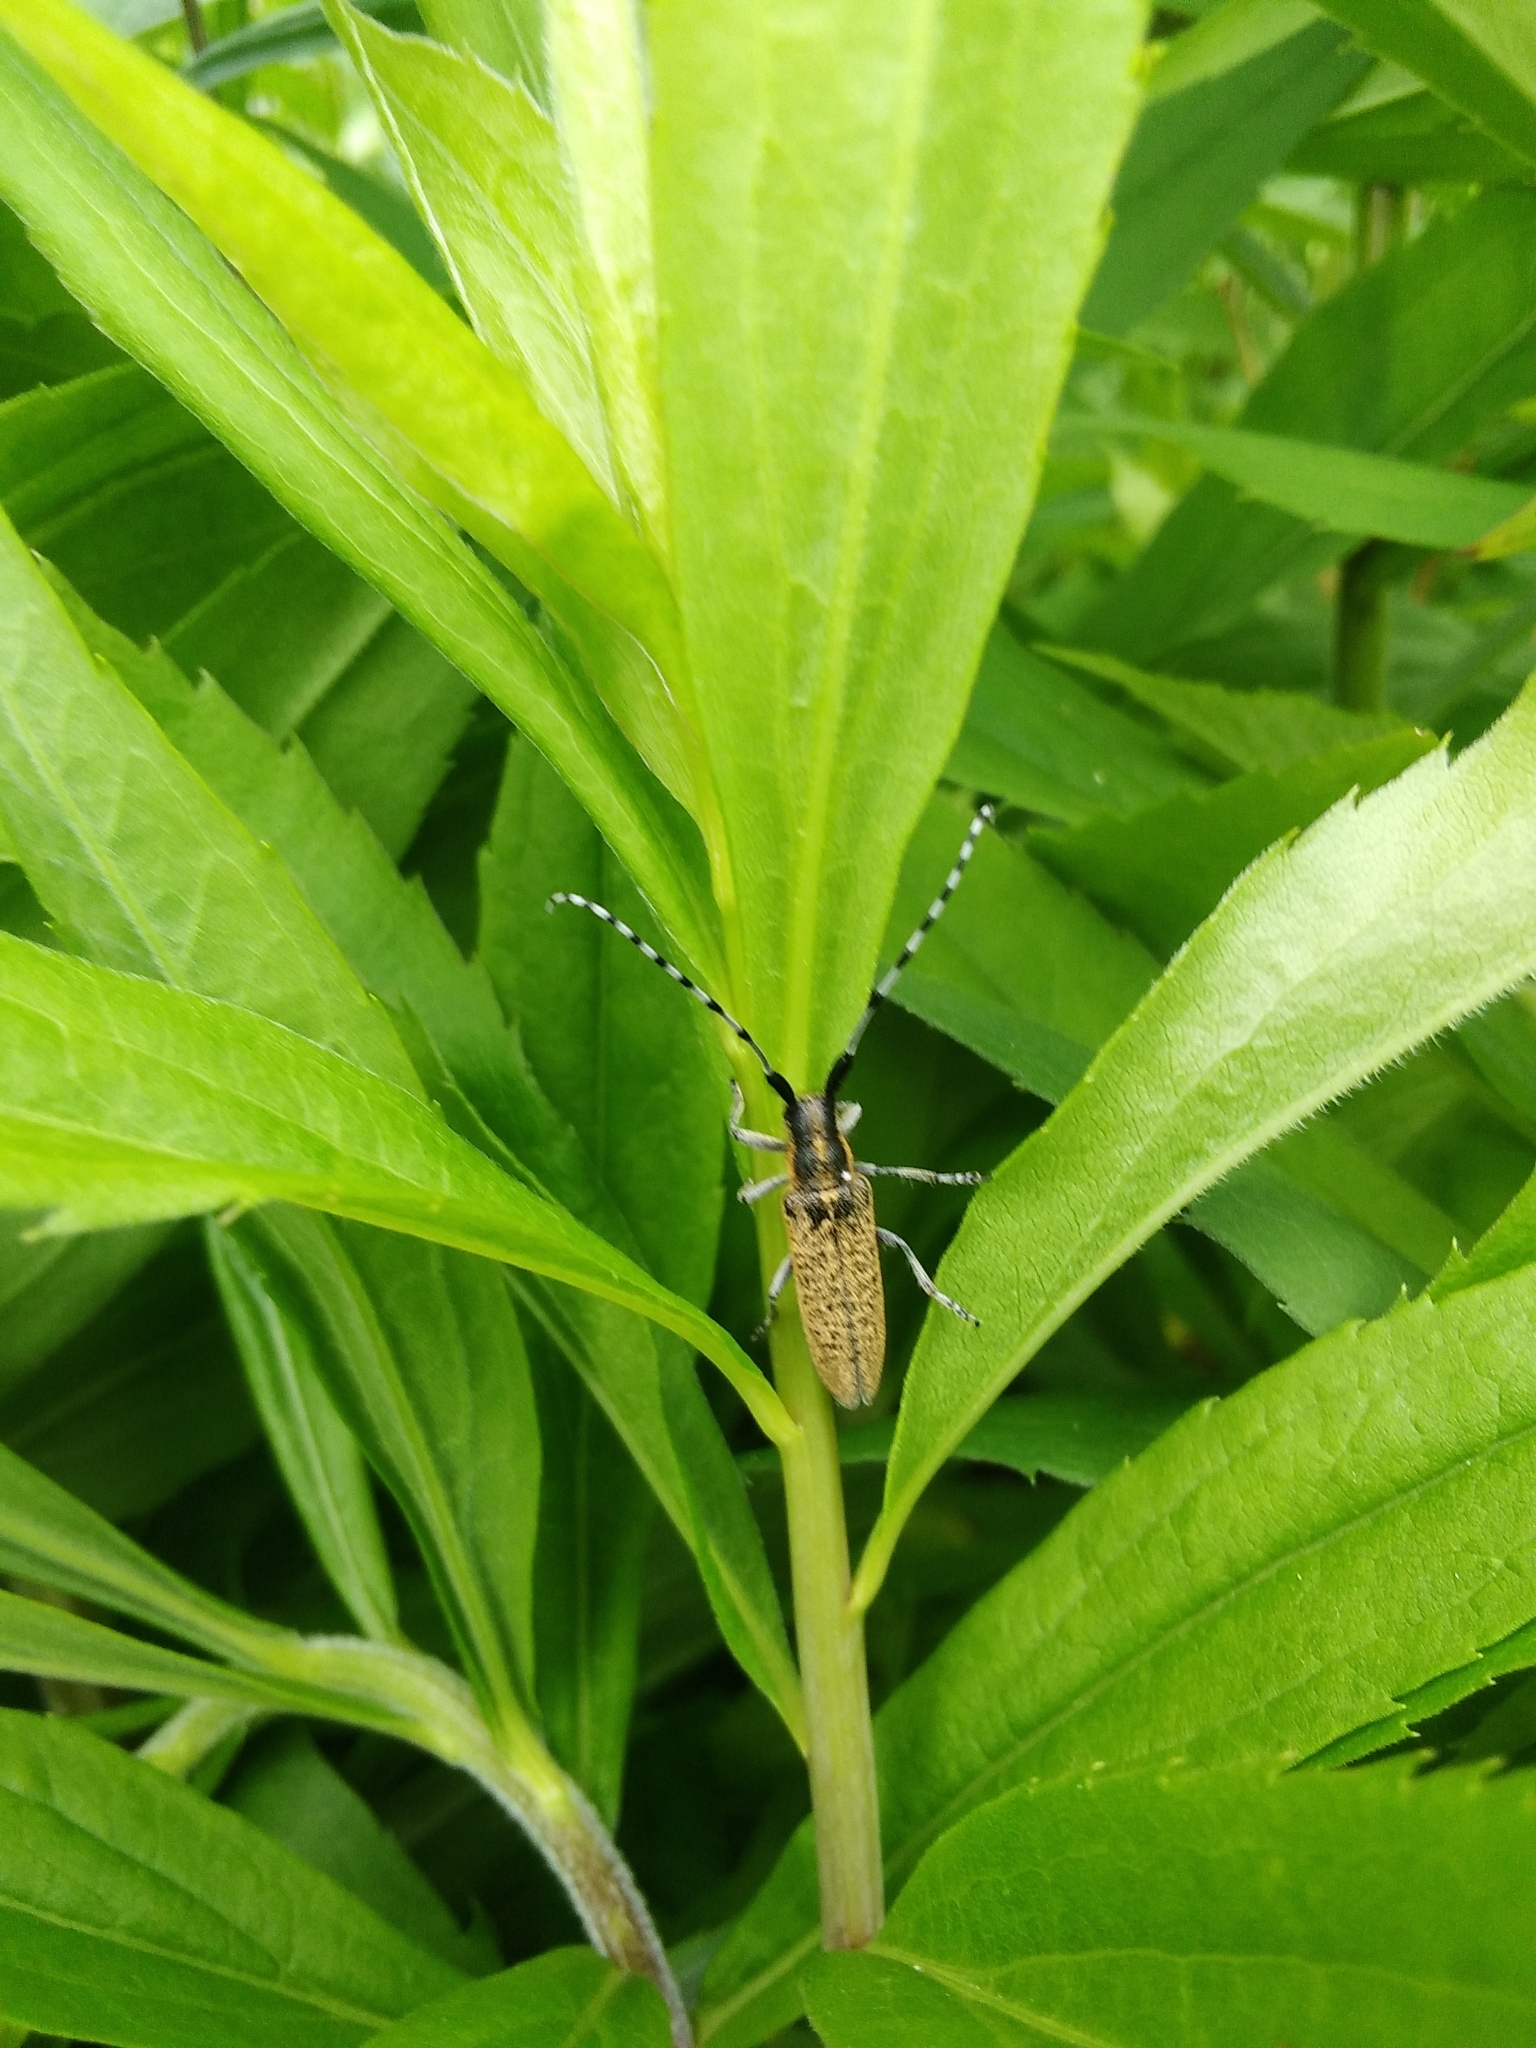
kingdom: Animalia
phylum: Arthropoda
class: Insecta
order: Coleoptera
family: Cerambycidae
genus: Agapanthia
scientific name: Agapanthia villosoviridescens
